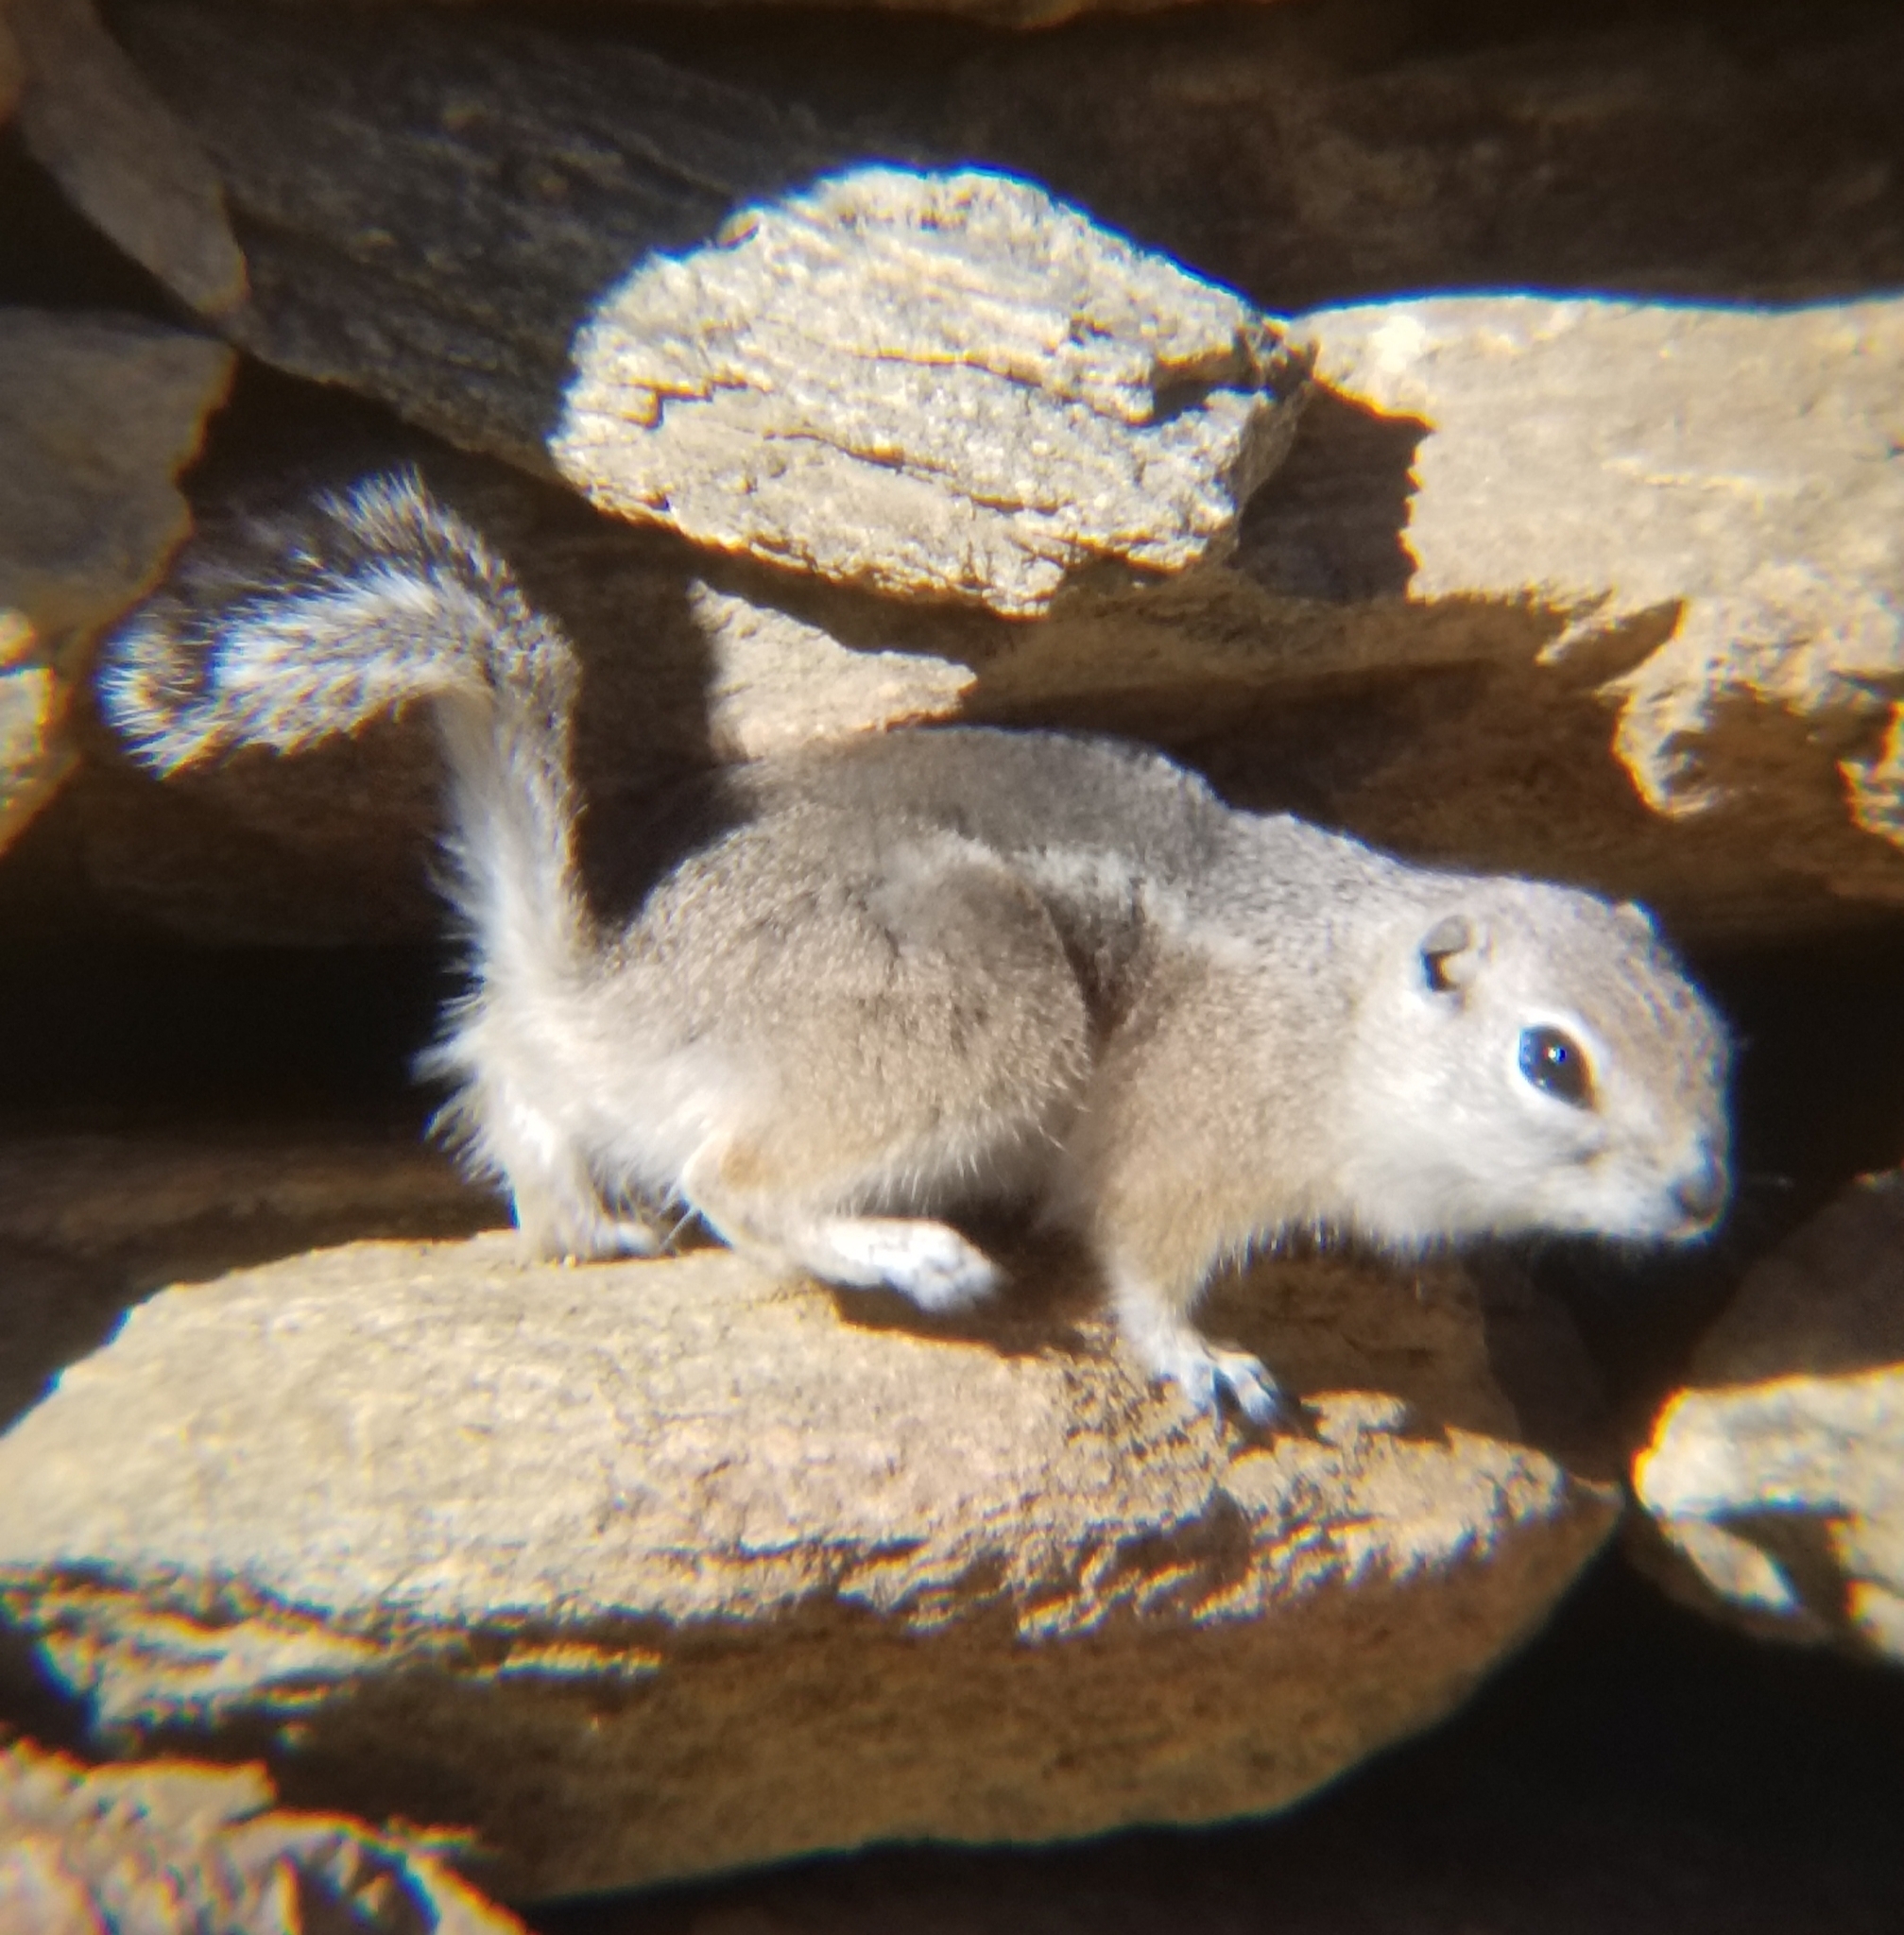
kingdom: Animalia
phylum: Chordata
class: Mammalia
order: Rodentia
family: Sciuridae
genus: Ammospermophilus
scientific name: Ammospermophilus leucurus
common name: White-tailed antelope squirrel
